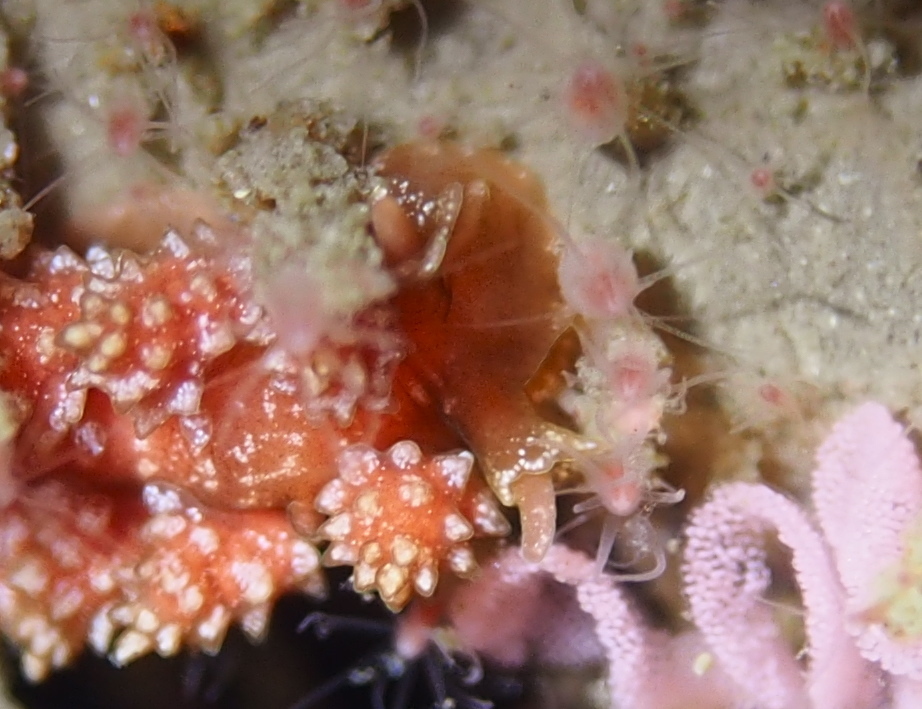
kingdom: Animalia
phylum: Mollusca
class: Gastropoda
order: Nudibranchia
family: Dotidae
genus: Doto
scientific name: Doto fragilis
